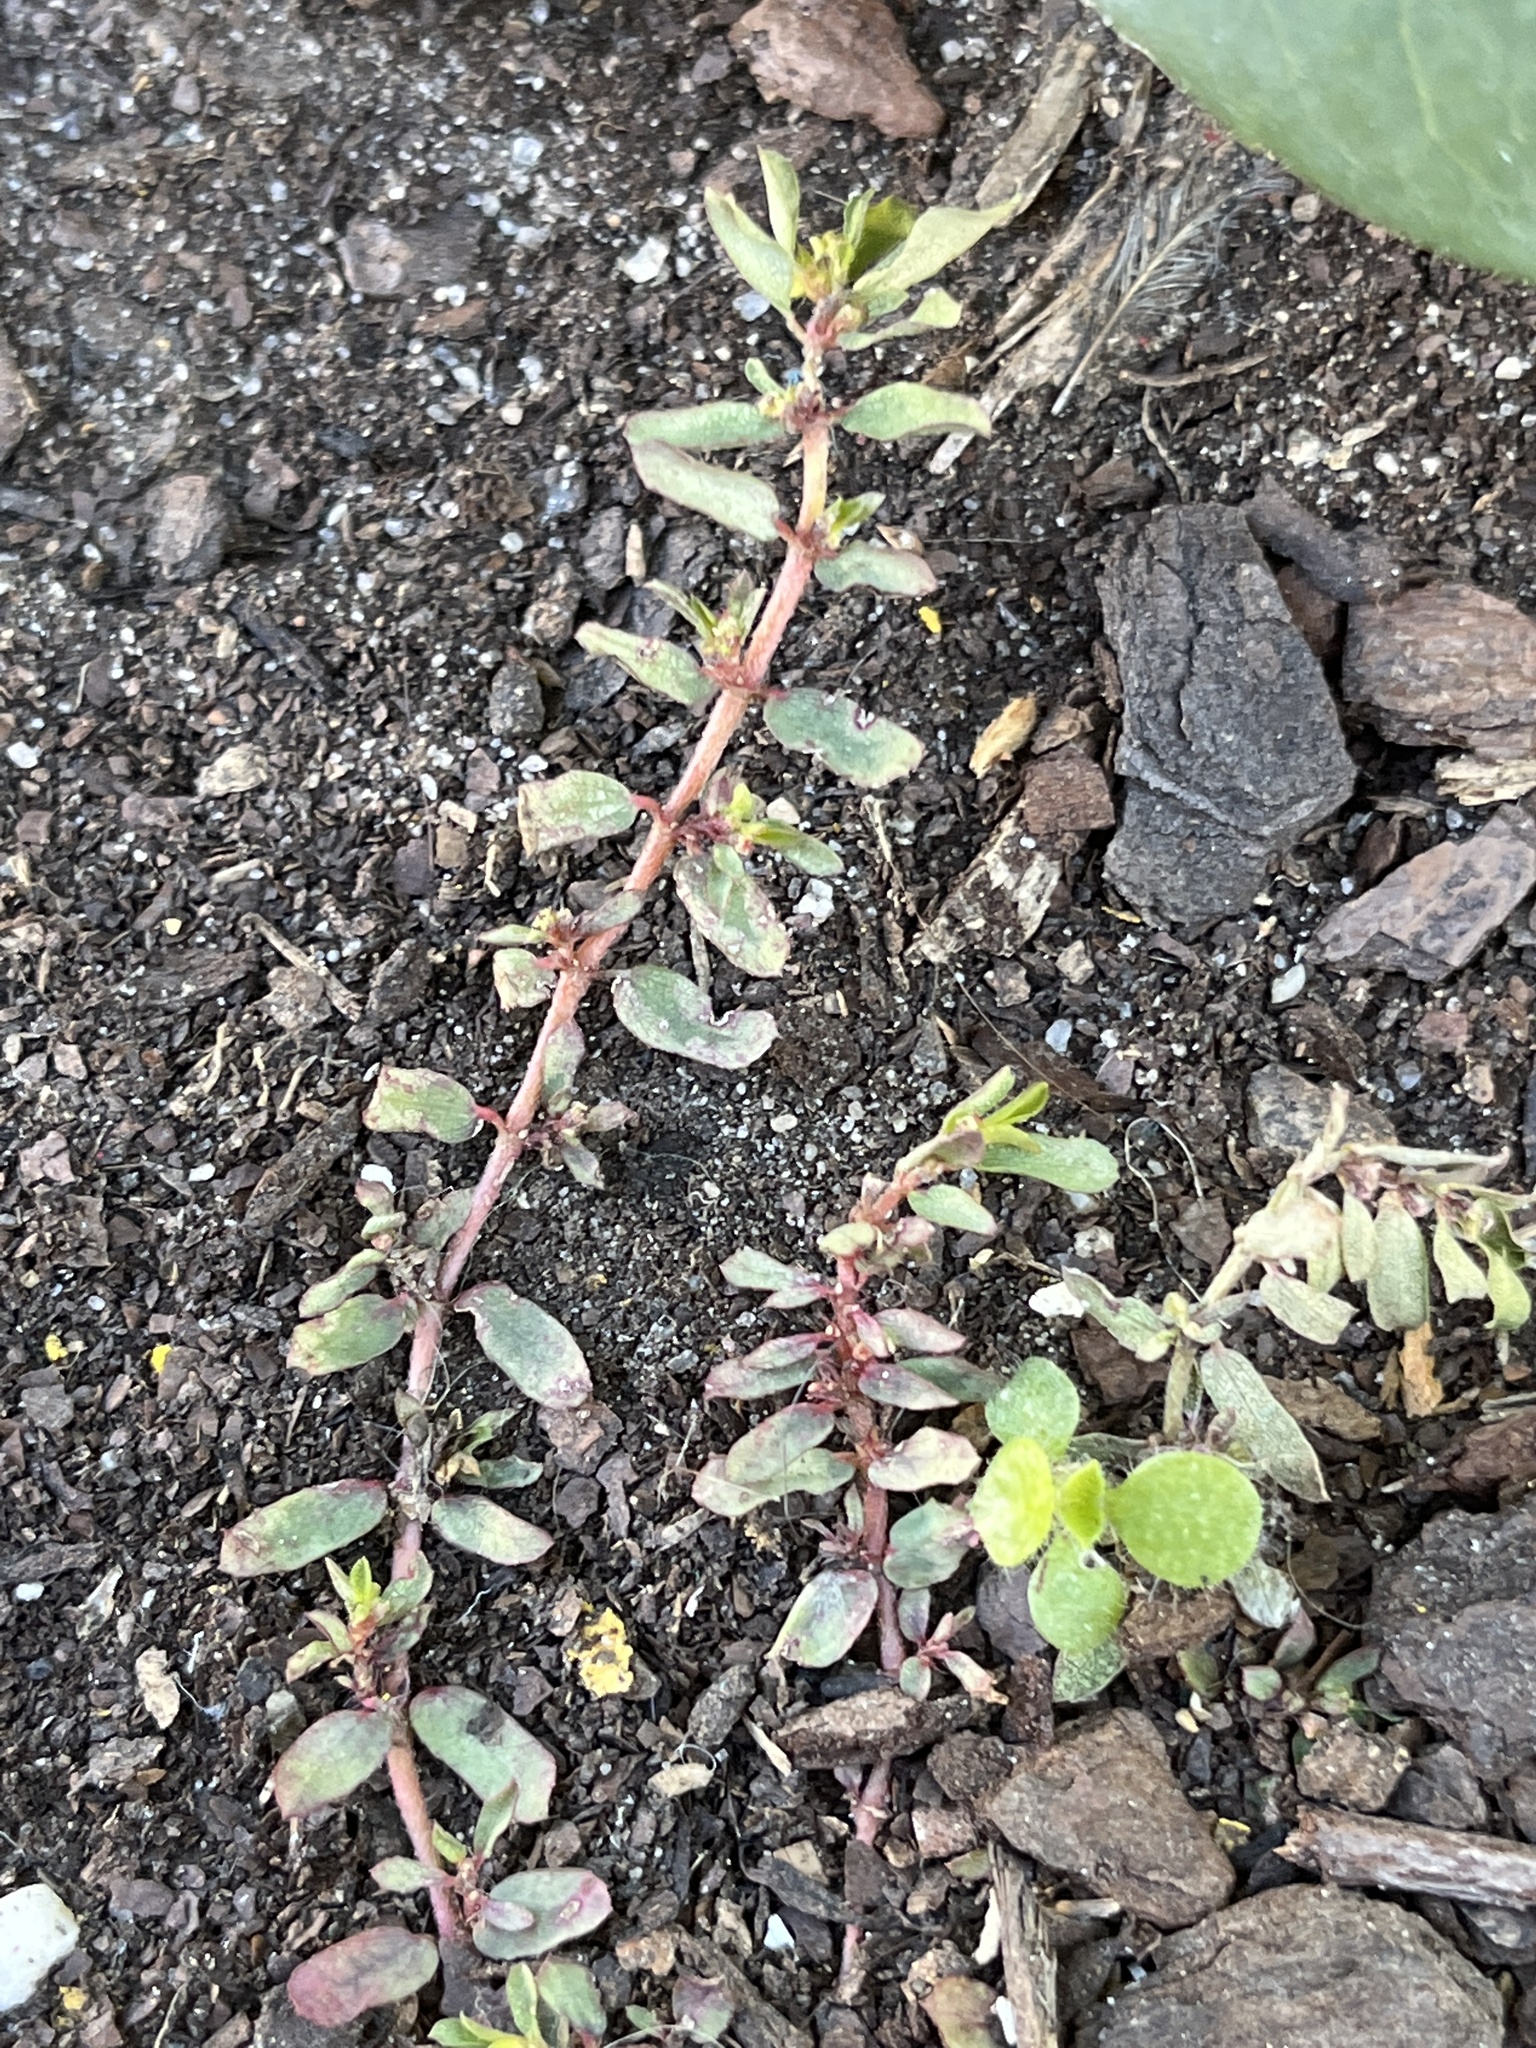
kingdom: Plantae
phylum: Tracheophyta
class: Magnoliopsida
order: Malpighiales
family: Euphorbiaceae
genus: Euphorbia
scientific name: Euphorbia maculata
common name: Spotted spurge
